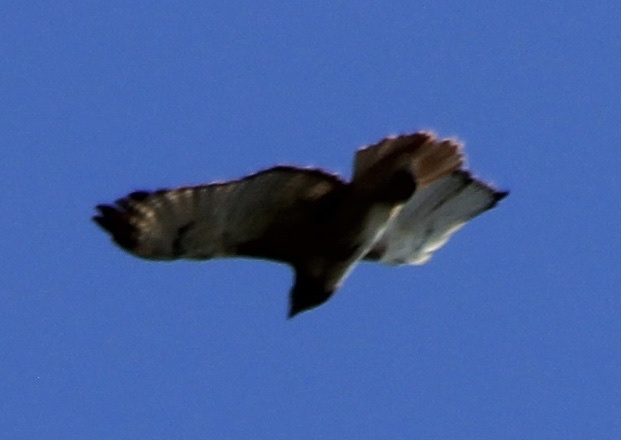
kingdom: Animalia
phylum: Chordata
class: Aves
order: Accipitriformes
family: Accipitridae
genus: Buteo
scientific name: Buteo jamaicensis
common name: Red-tailed hawk
